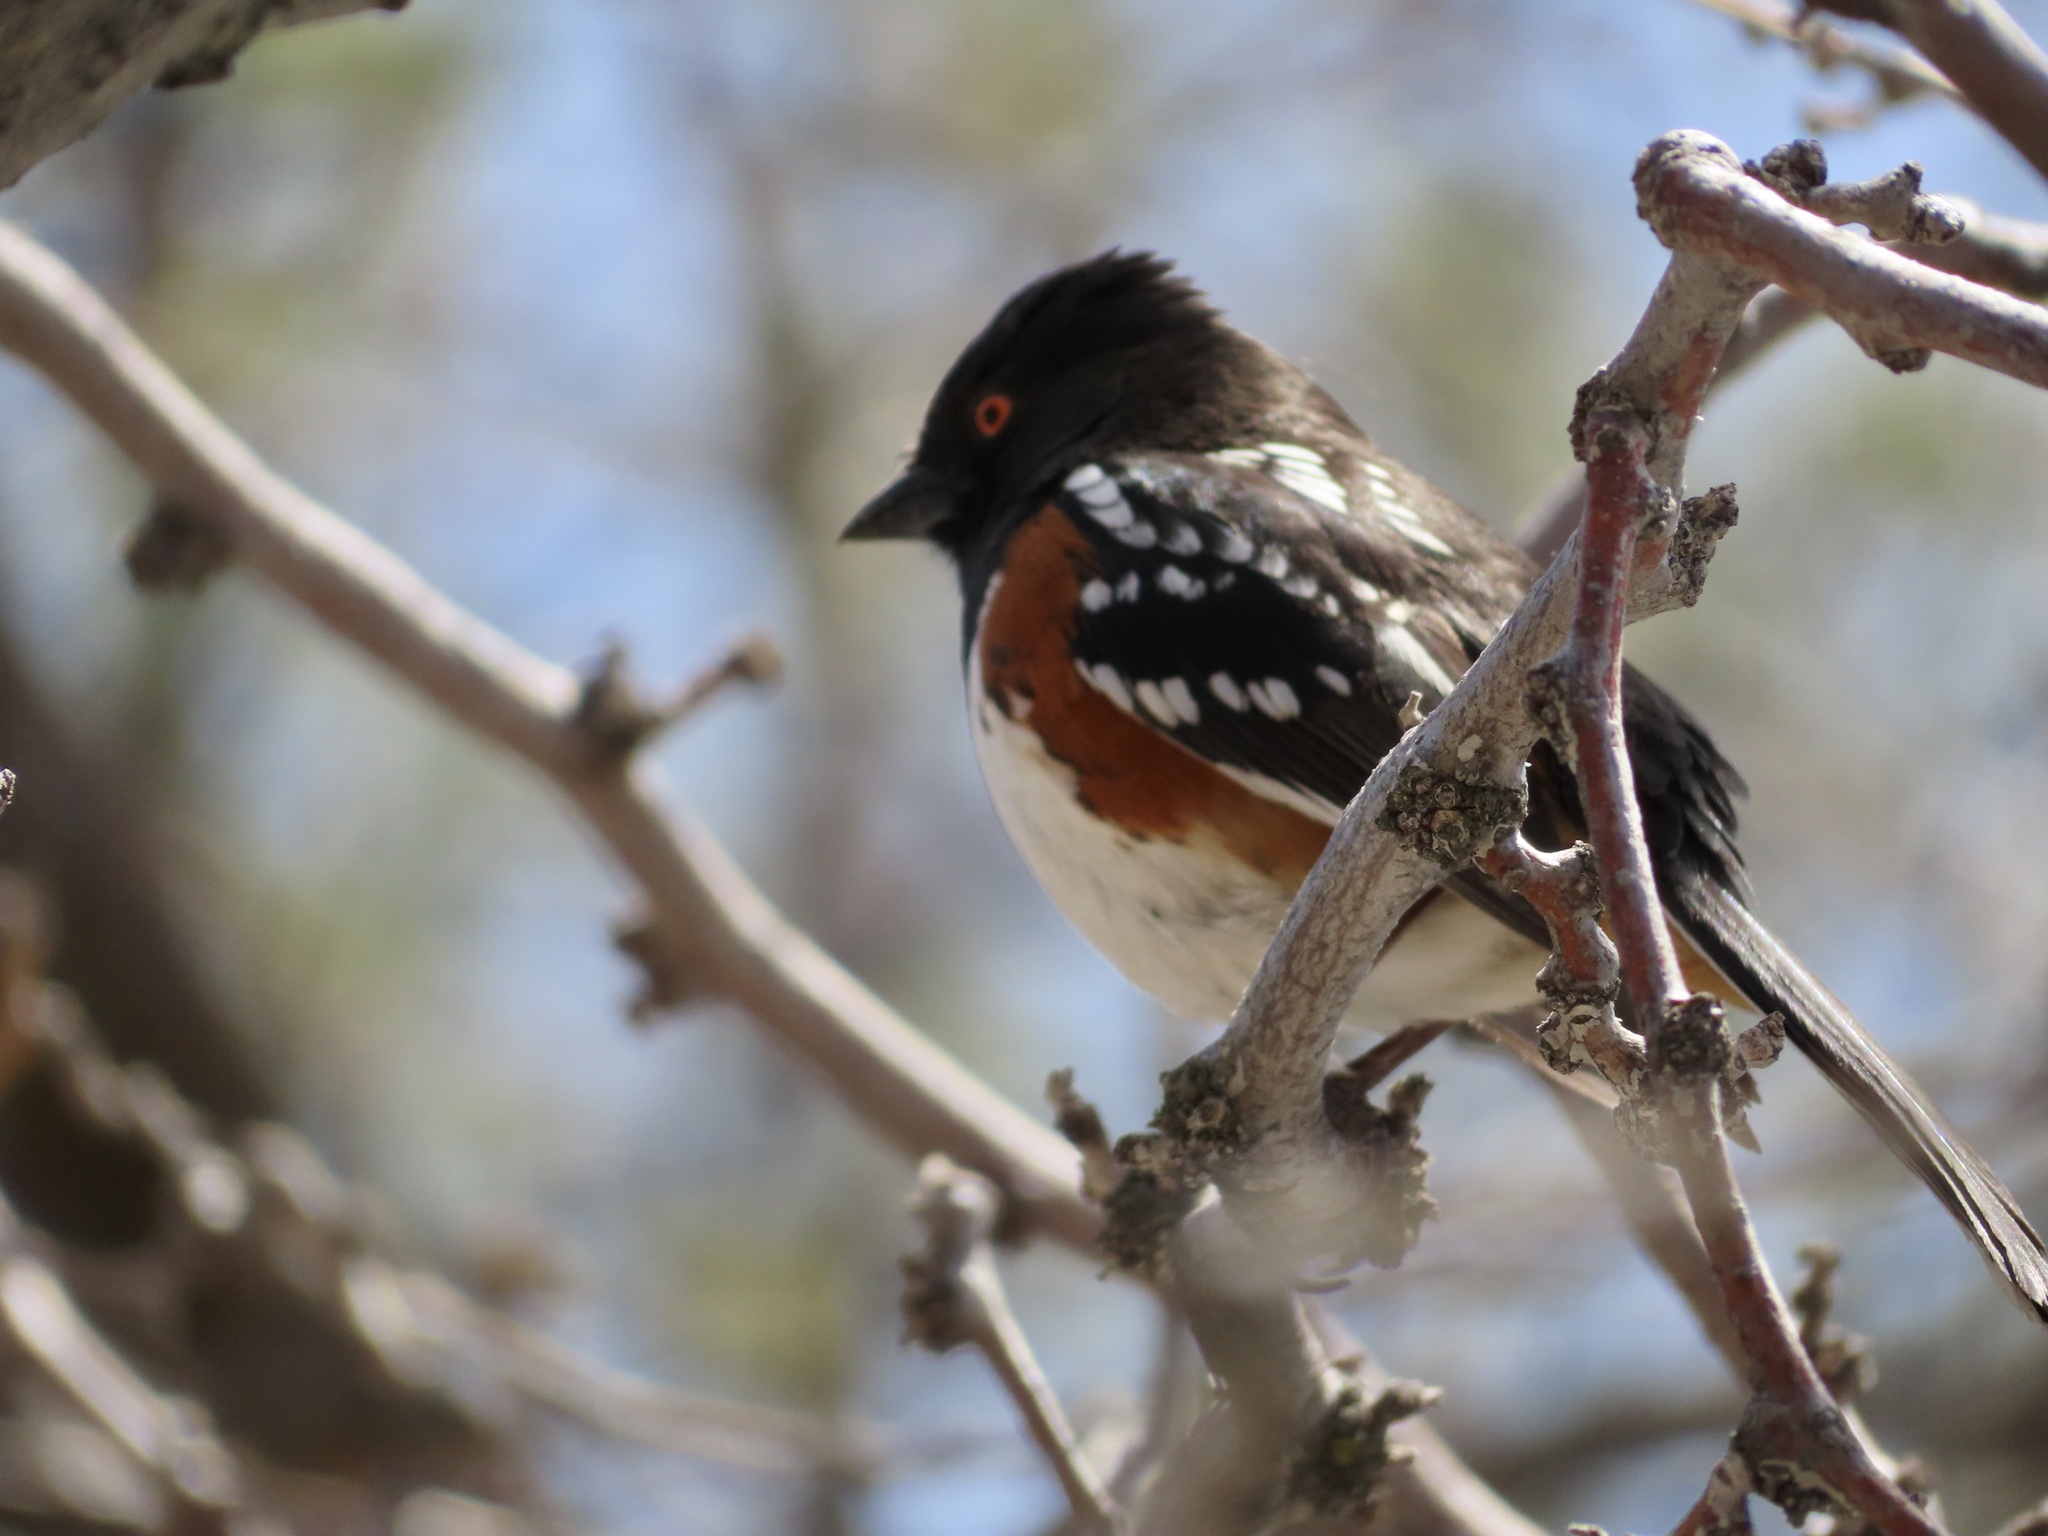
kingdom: Animalia
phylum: Chordata
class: Aves
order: Passeriformes
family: Passerellidae
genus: Pipilo
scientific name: Pipilo maculatus
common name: Spotted towhee
